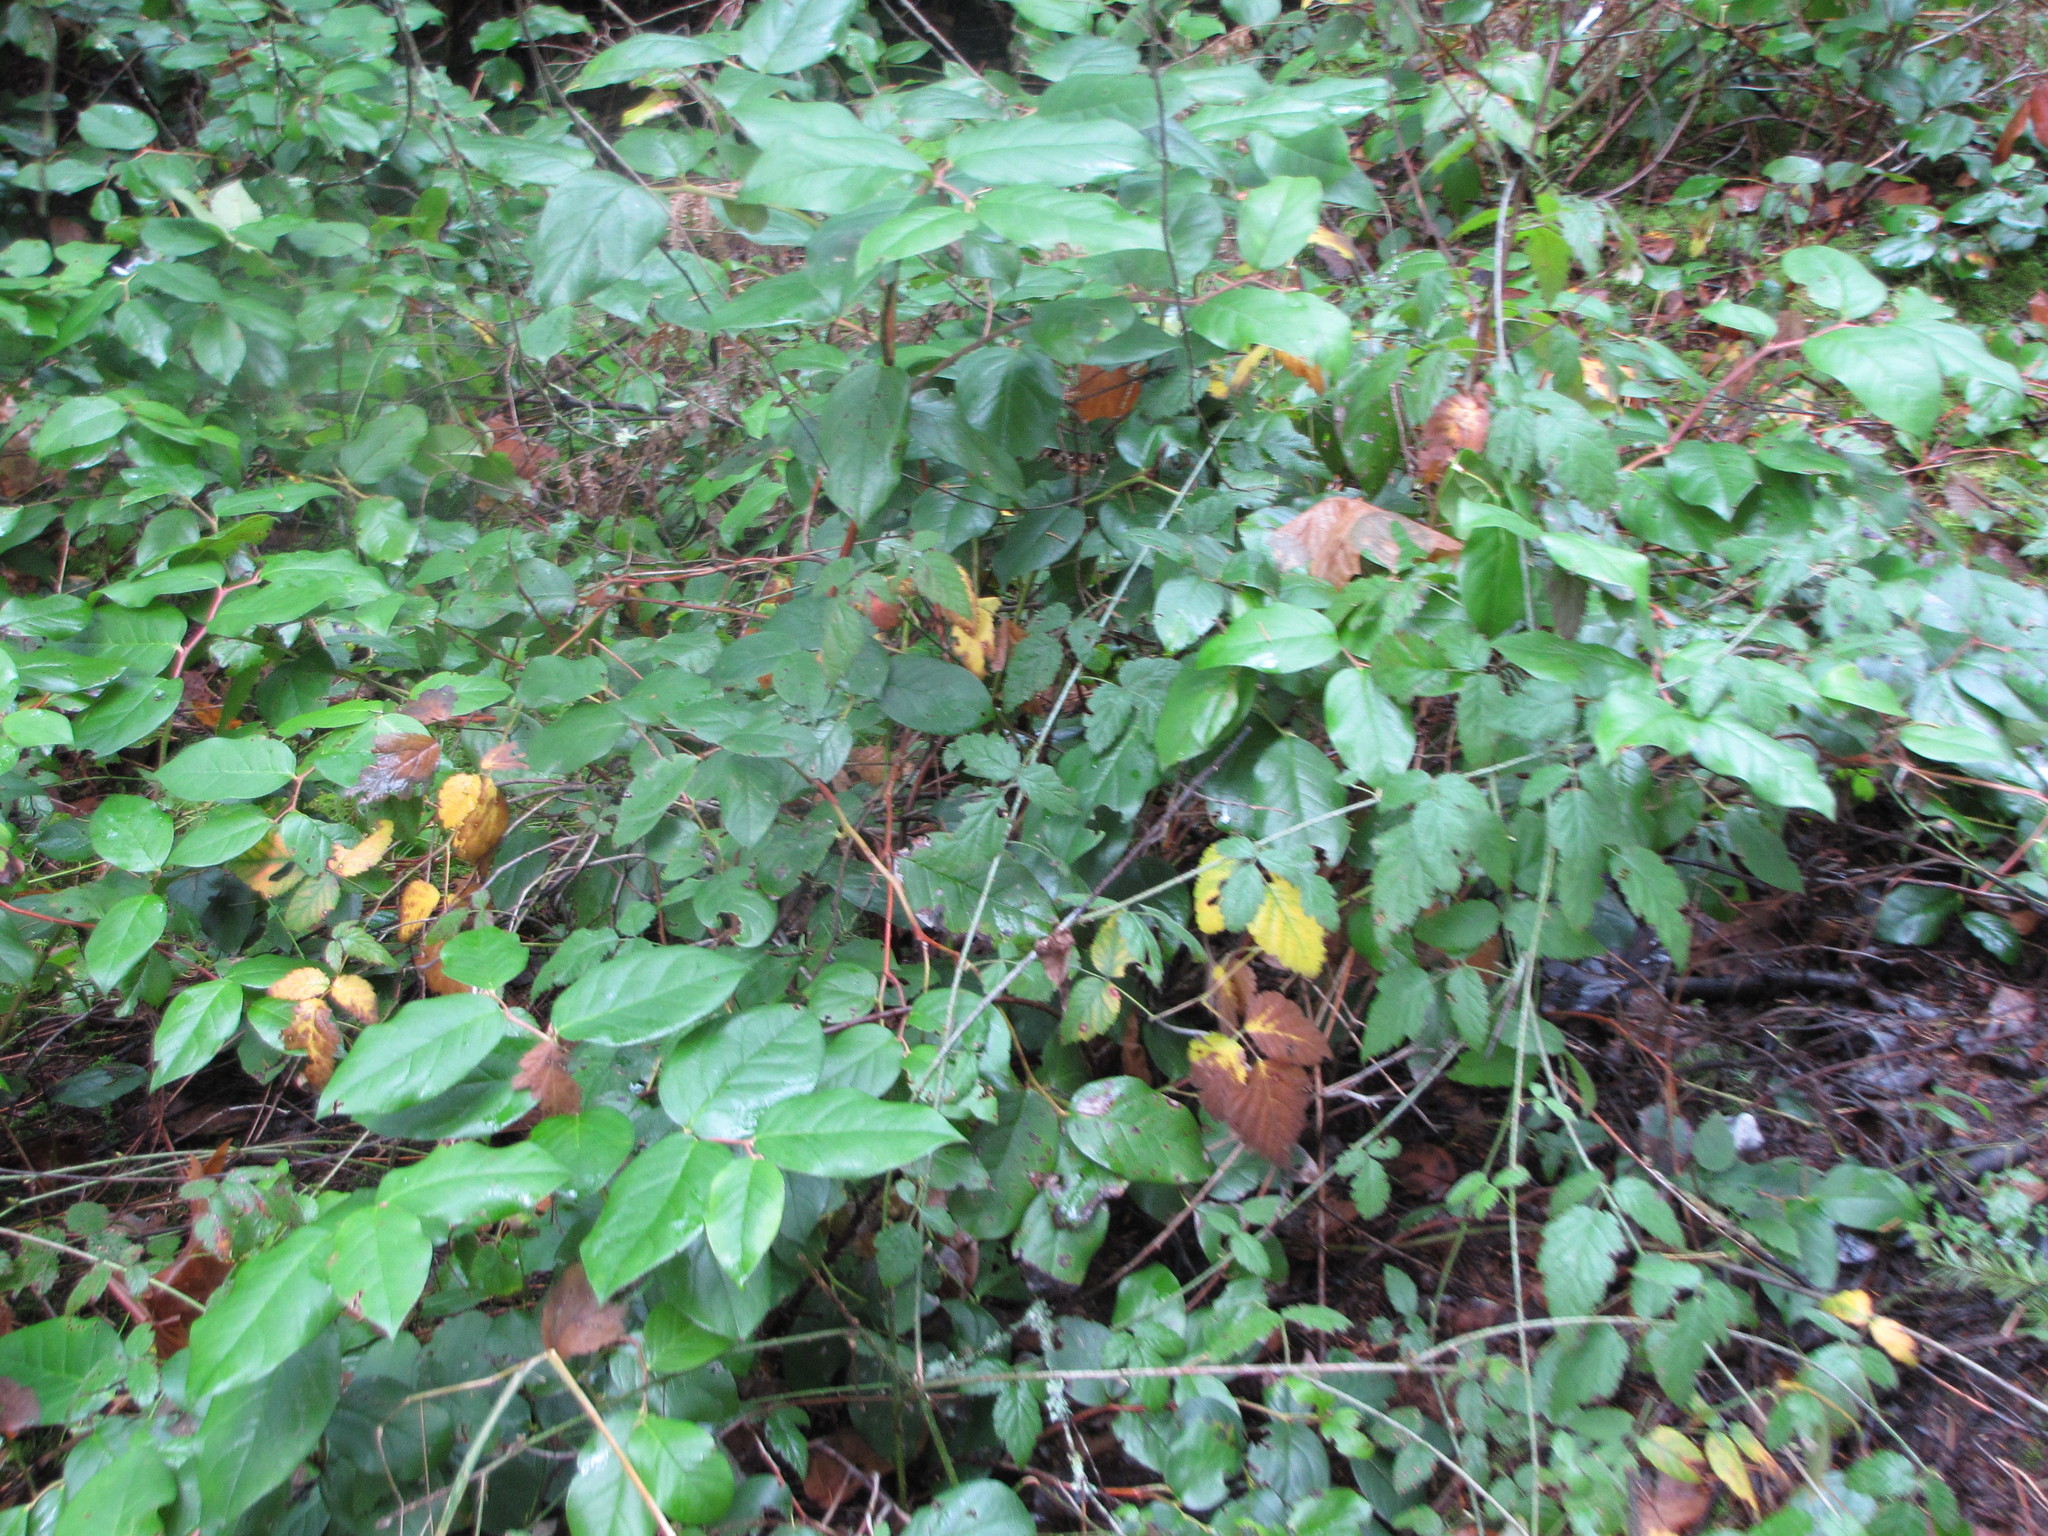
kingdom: Plantae
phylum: Tracheophyta
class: Magnoliopsida
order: Ericales
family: Ericaceae
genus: Gaultheria
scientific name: Gaultheria shallon
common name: Shallon
